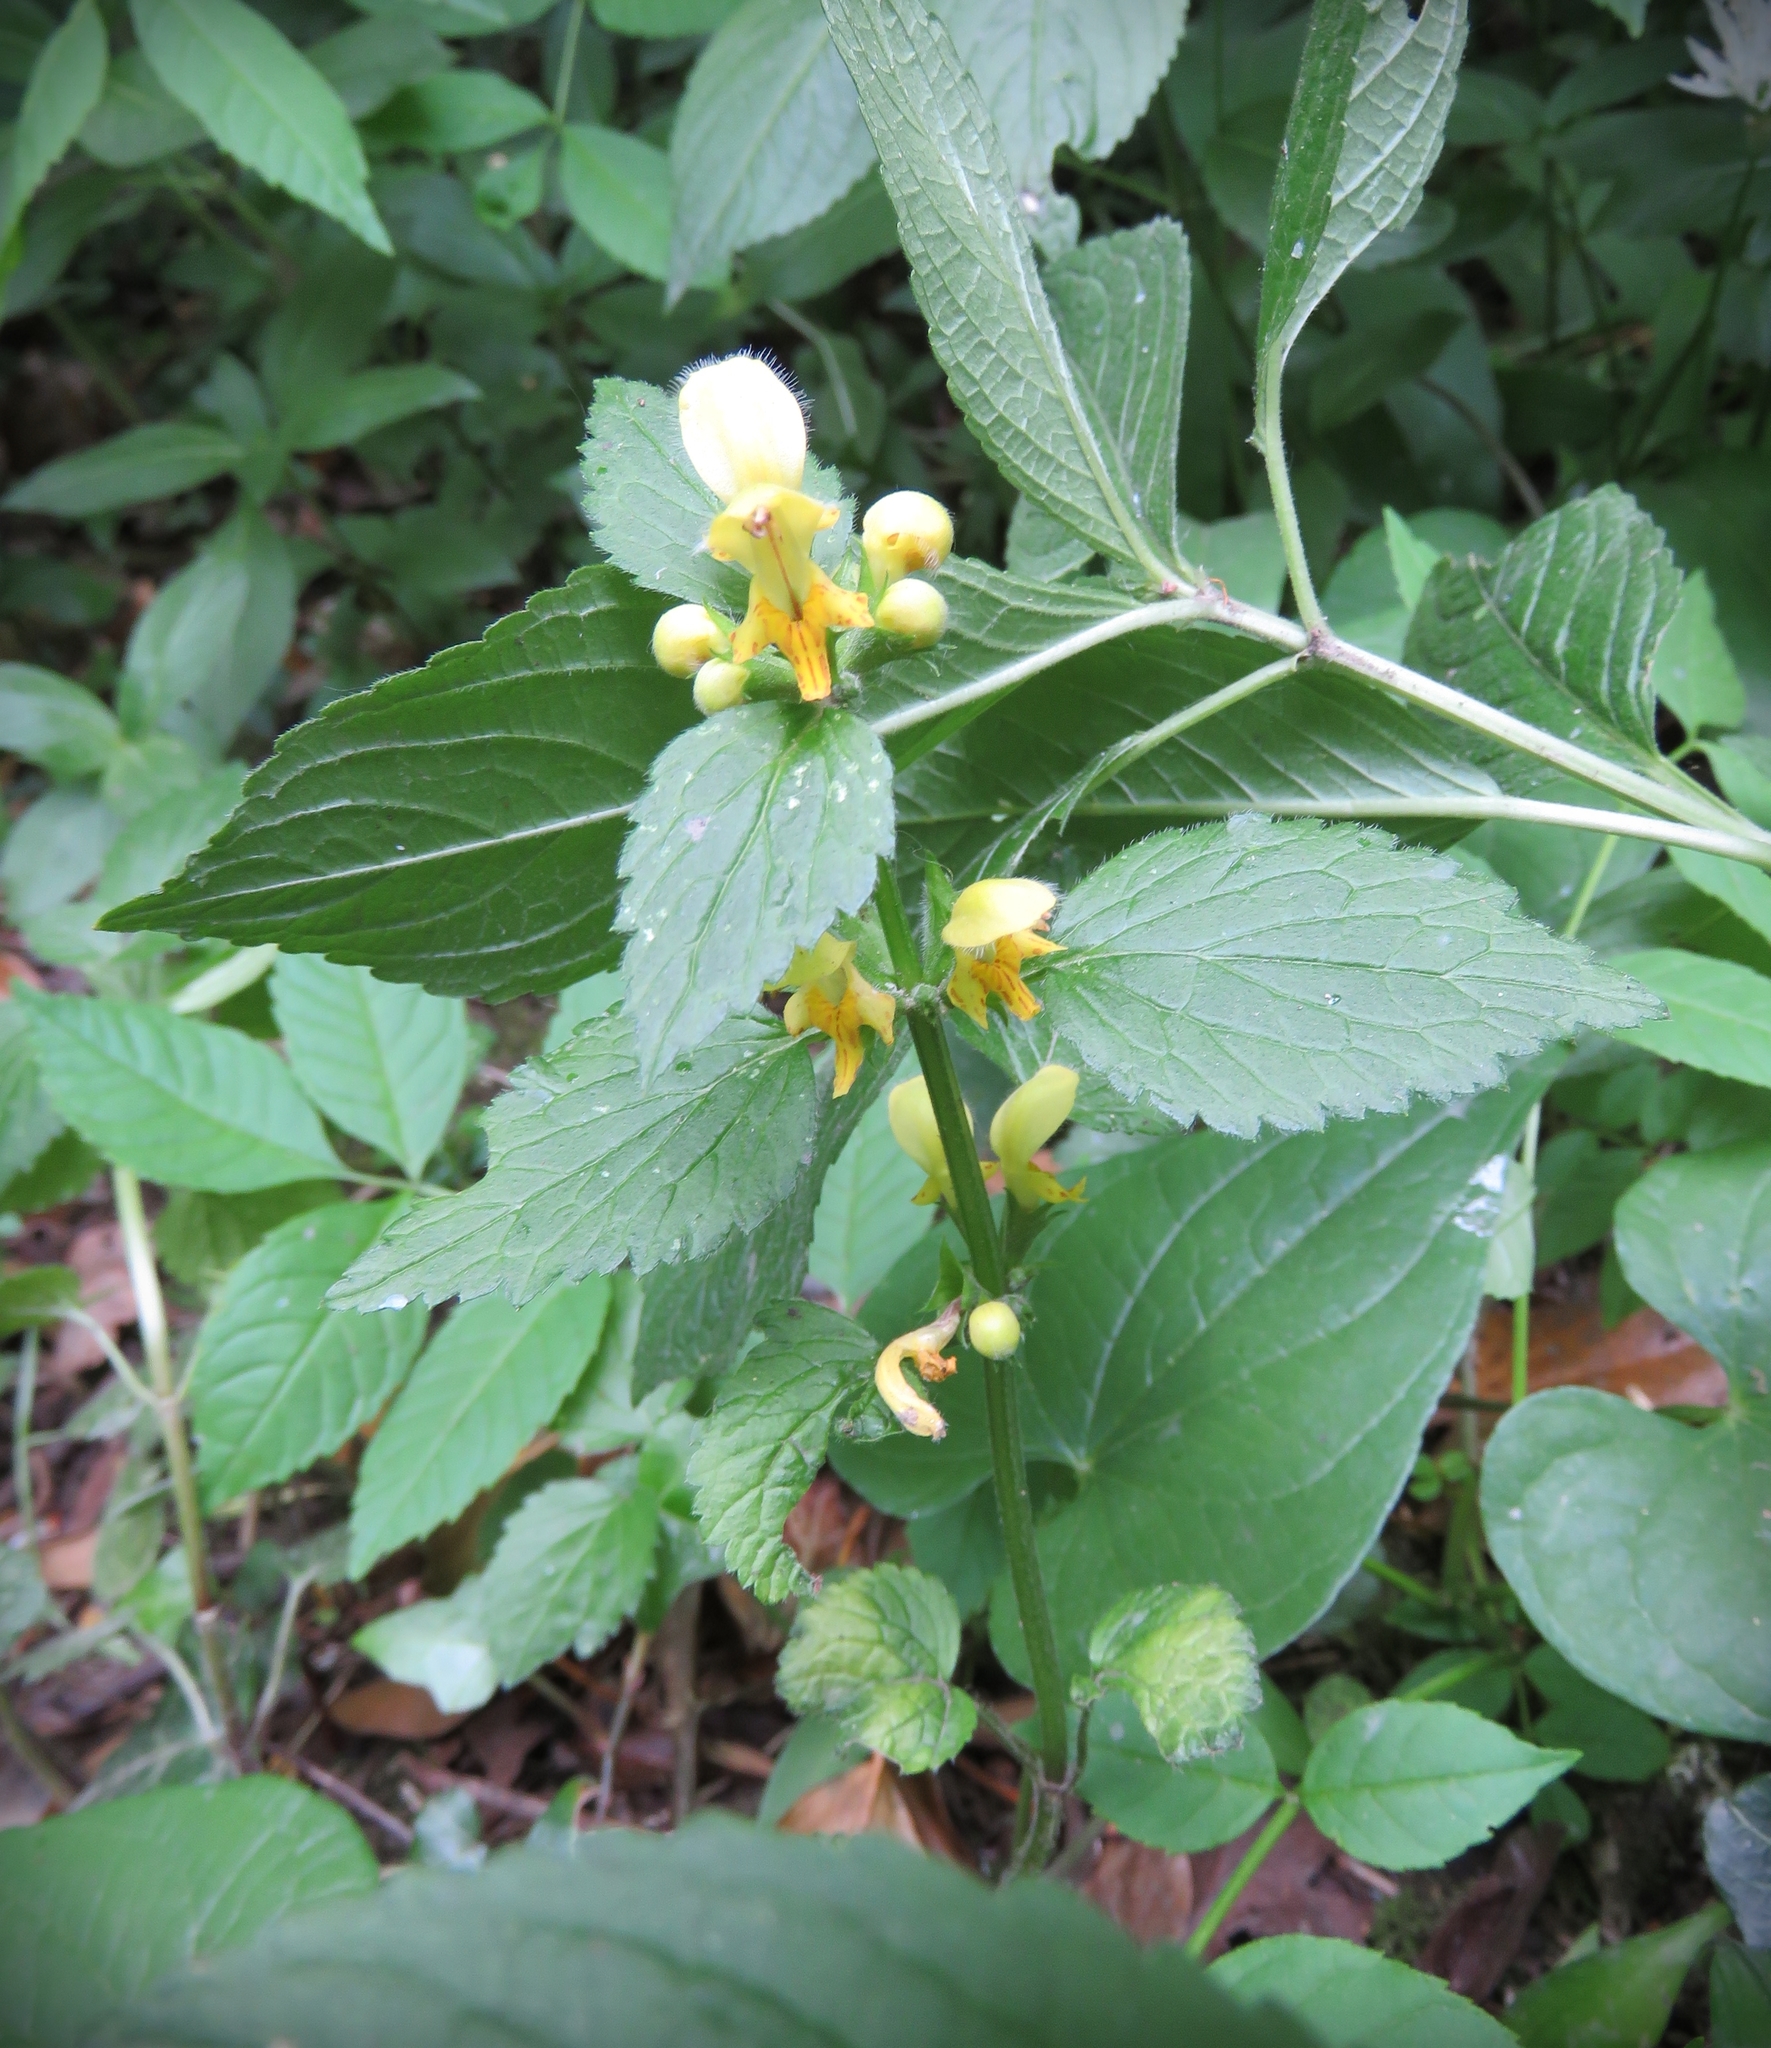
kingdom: Plantae
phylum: Tracheophyta
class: Magnoliopsida
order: Lamiales
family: Lamiaceae
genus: Lamium
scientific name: Lamium galeobdolon
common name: Yellow archangel
